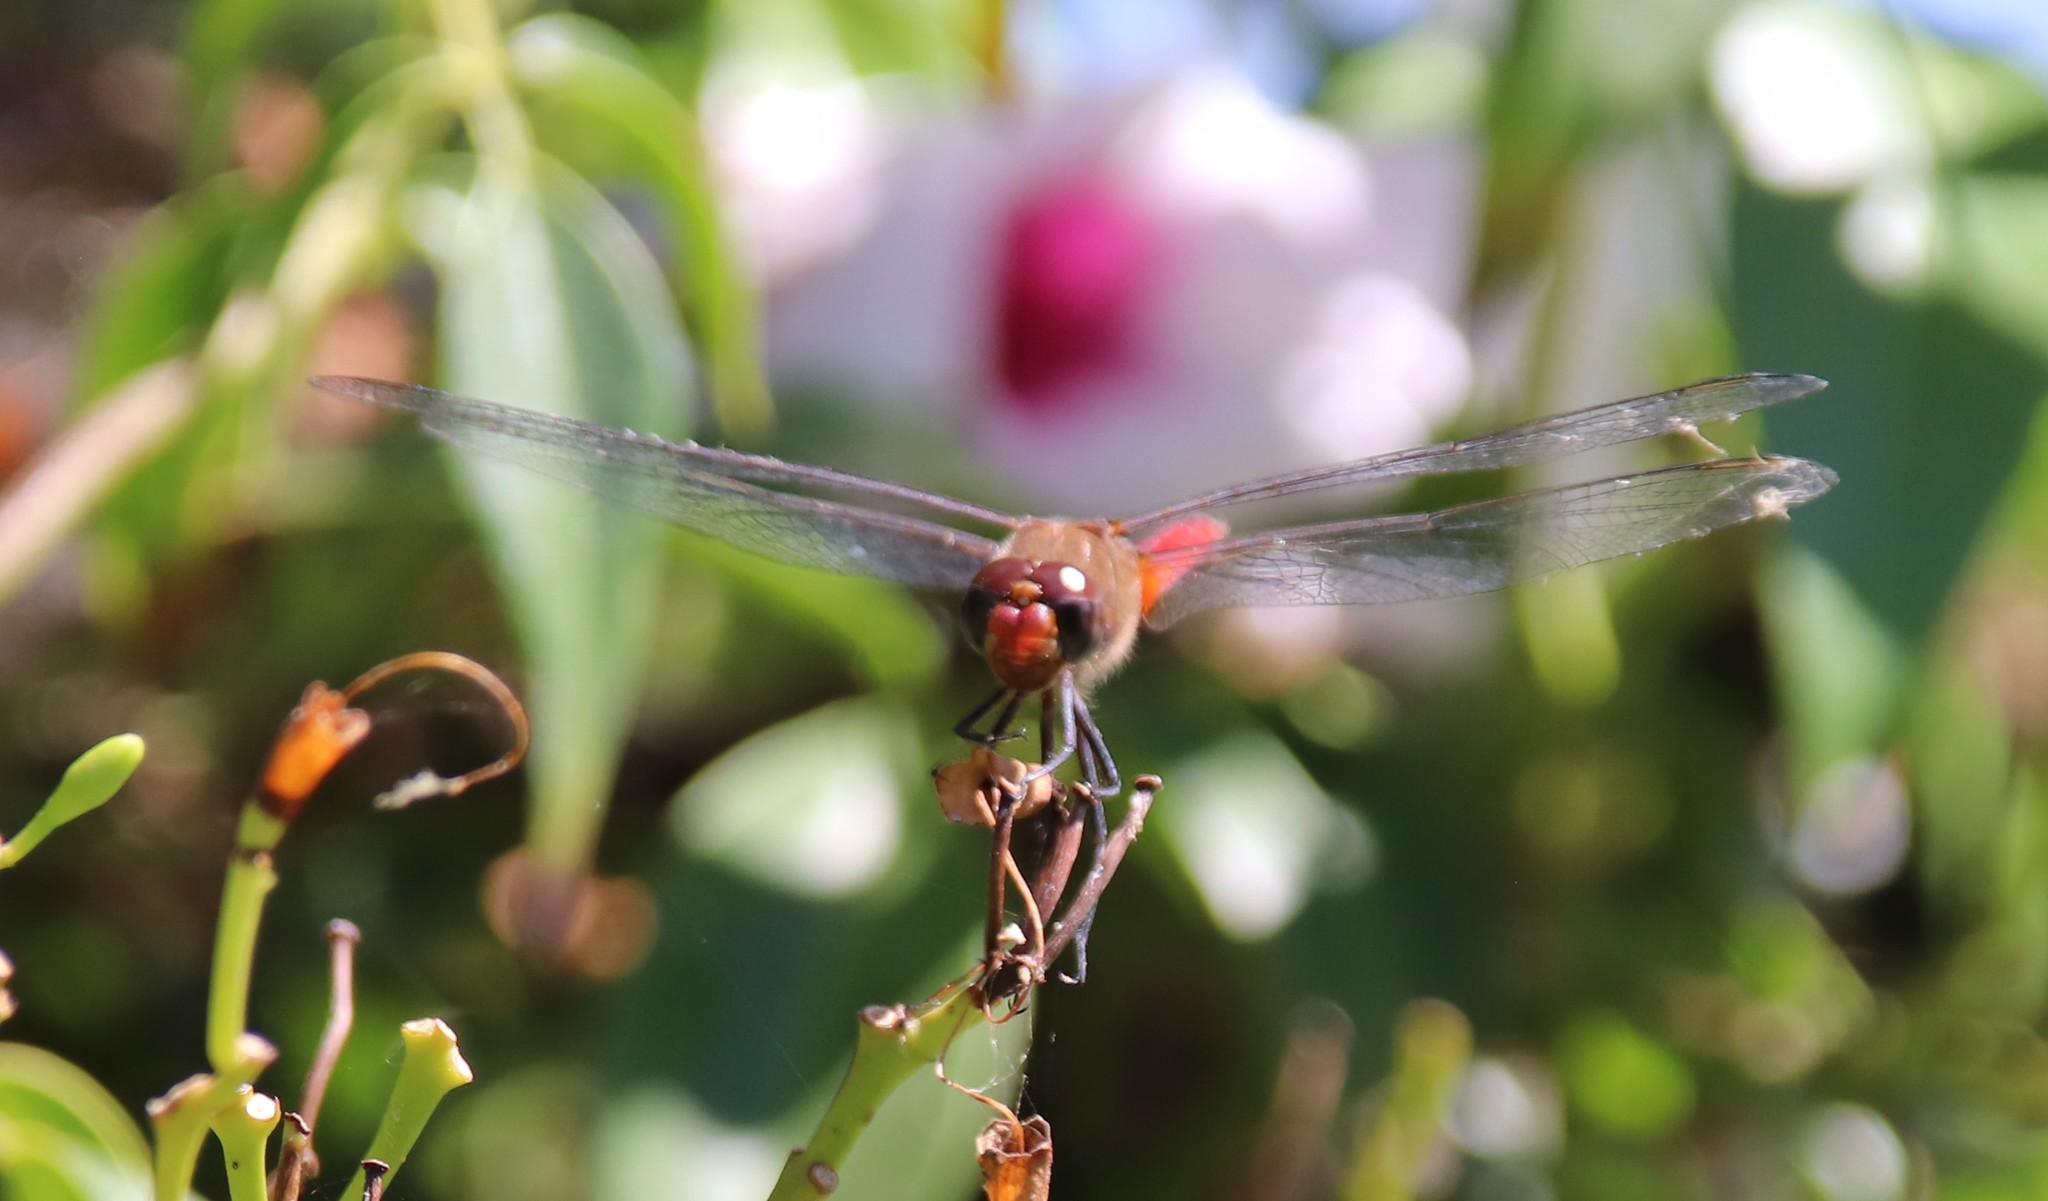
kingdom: Animalia
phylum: Arthropoda
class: Insecta
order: Odonata
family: Libellulidae
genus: Brachymesia
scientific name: Brachymesia furcata
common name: Red-taled pennant
